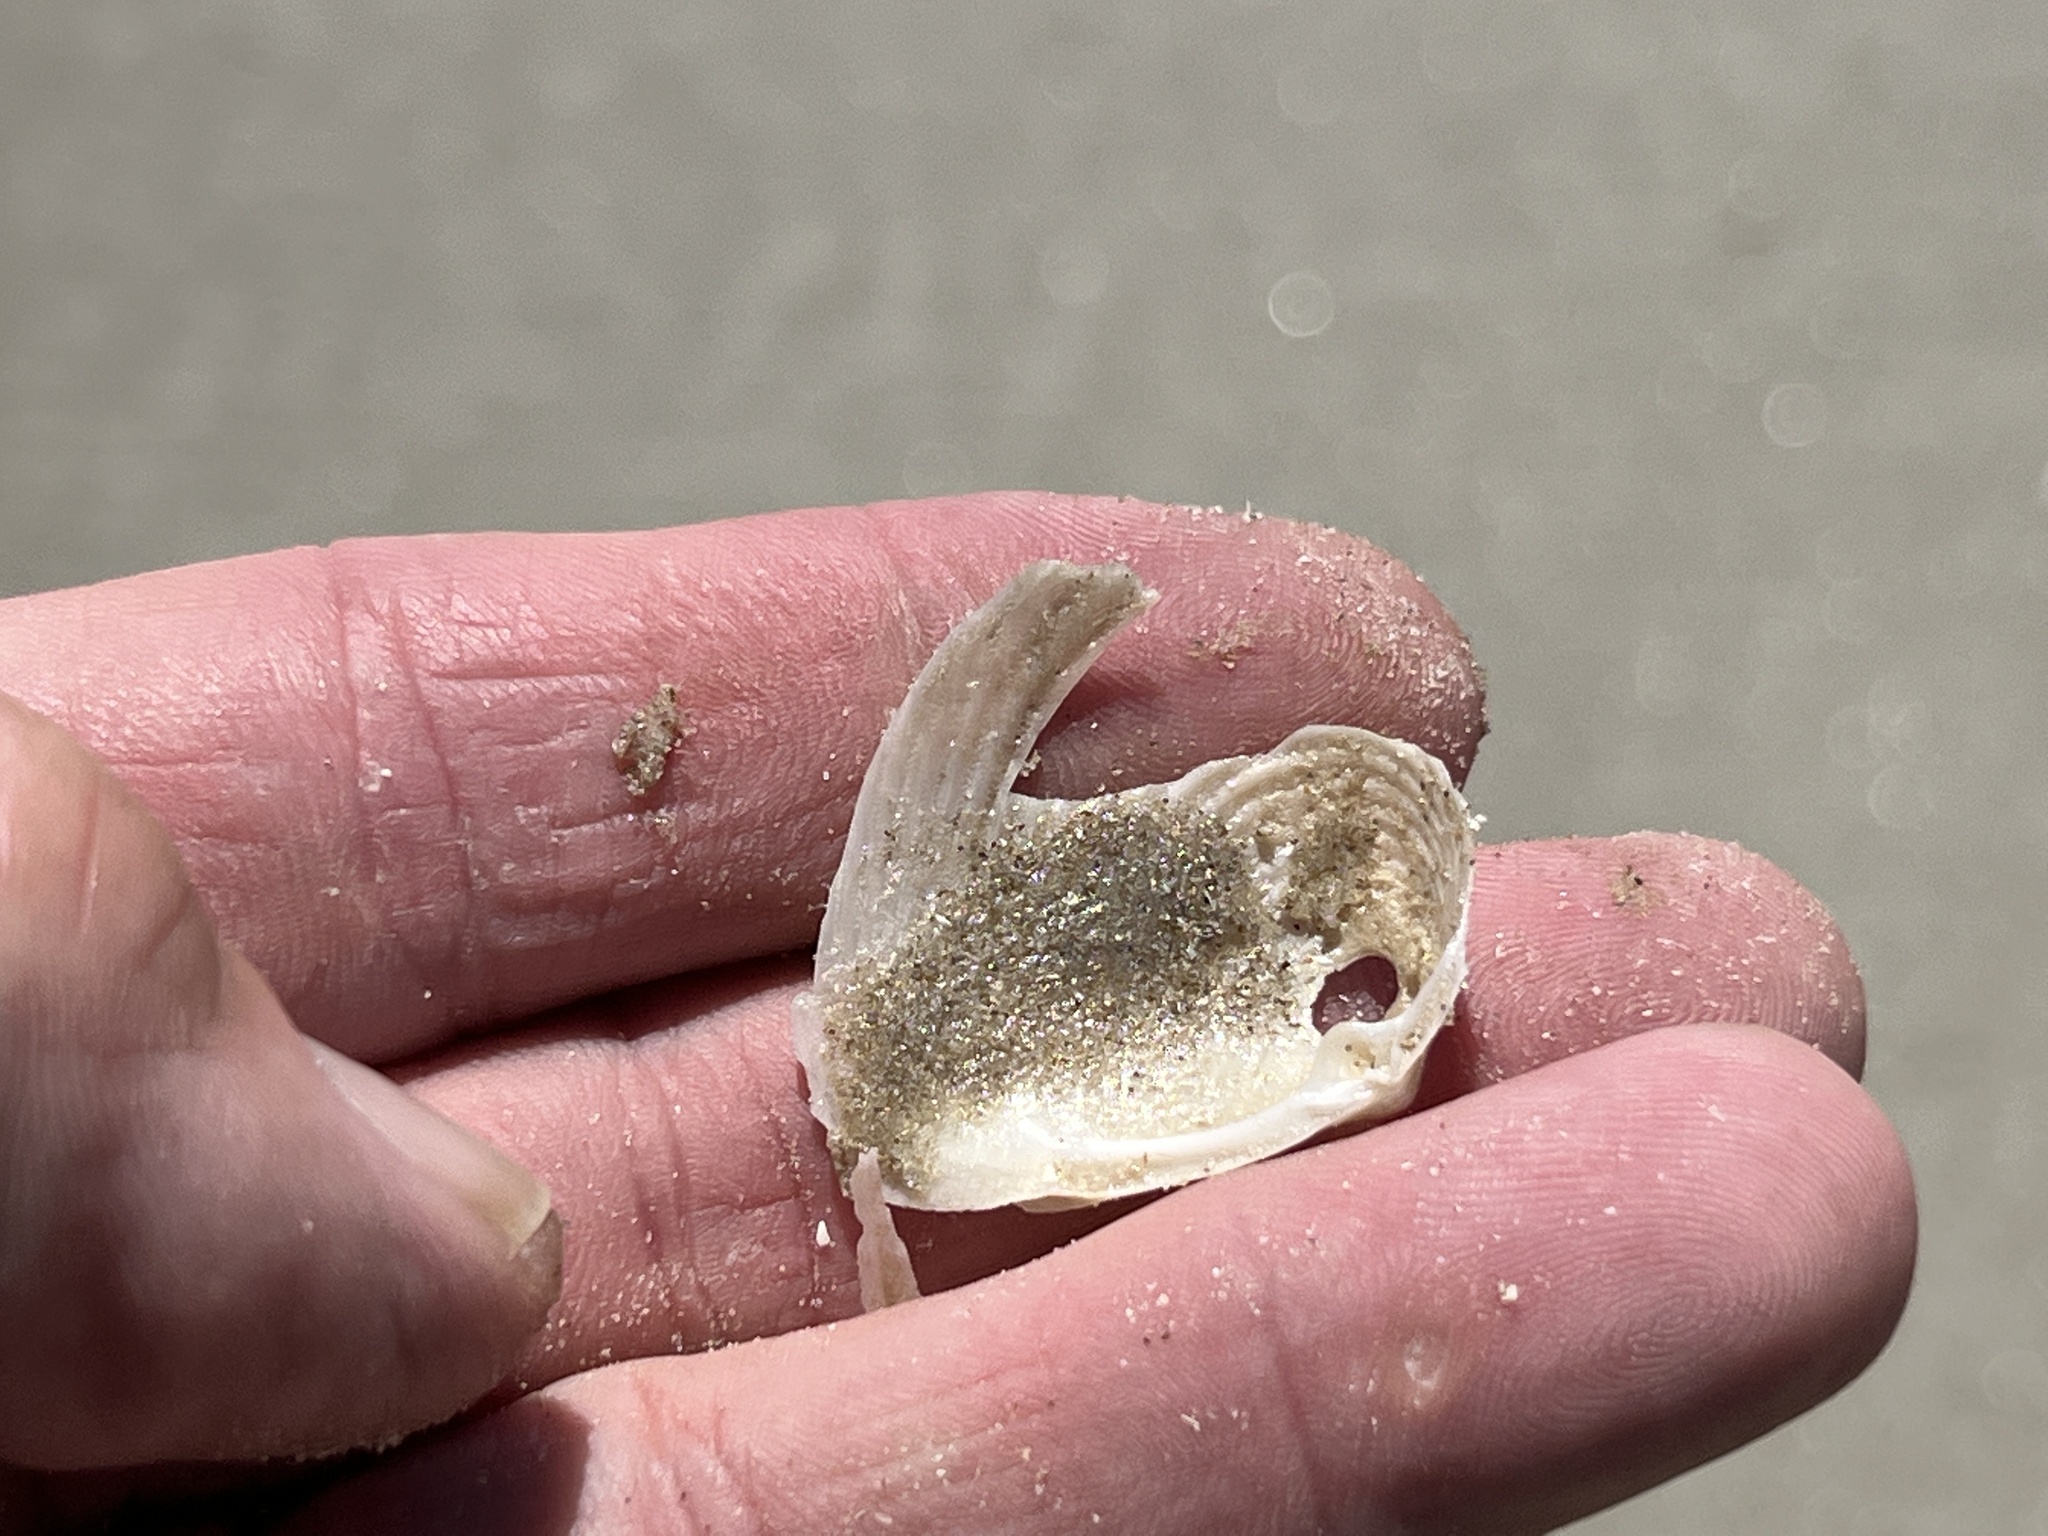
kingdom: Animalia
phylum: Mollusca
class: Bivalvia
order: Venerida
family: Anatinellidae
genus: Raeta
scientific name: Raeta plicatella
